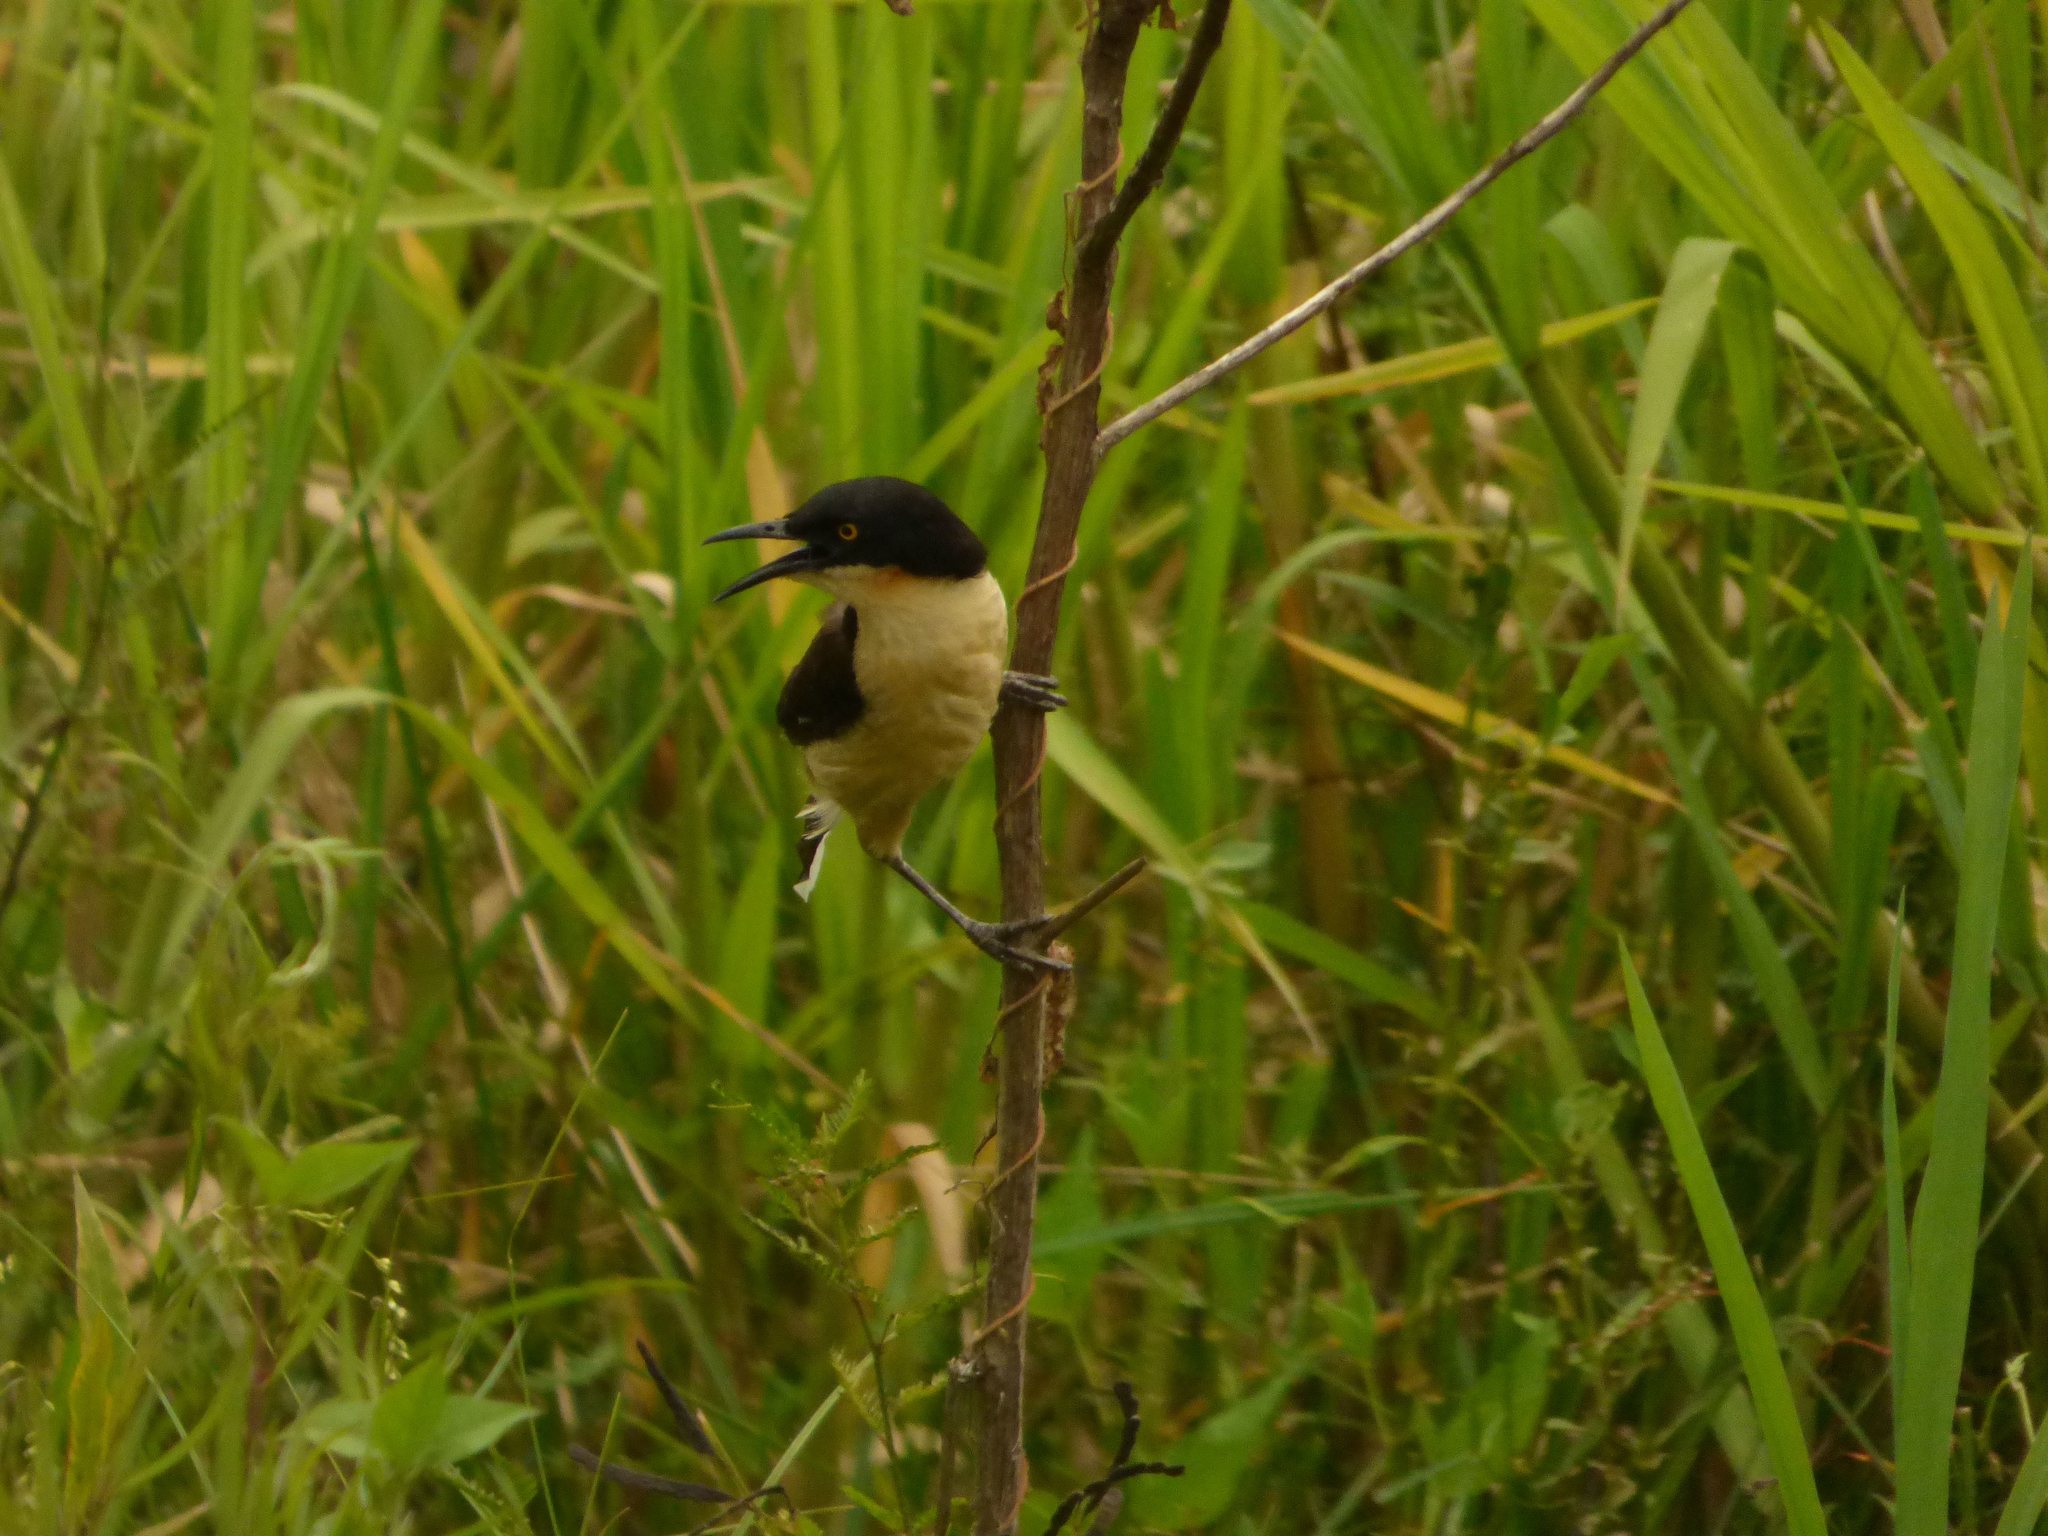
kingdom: Animalia
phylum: Chordata
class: Aves
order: Passeriformes
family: Donacobiidae
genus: Donacobius
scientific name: Donacobius atricapilla
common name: Black-capped donacobius
